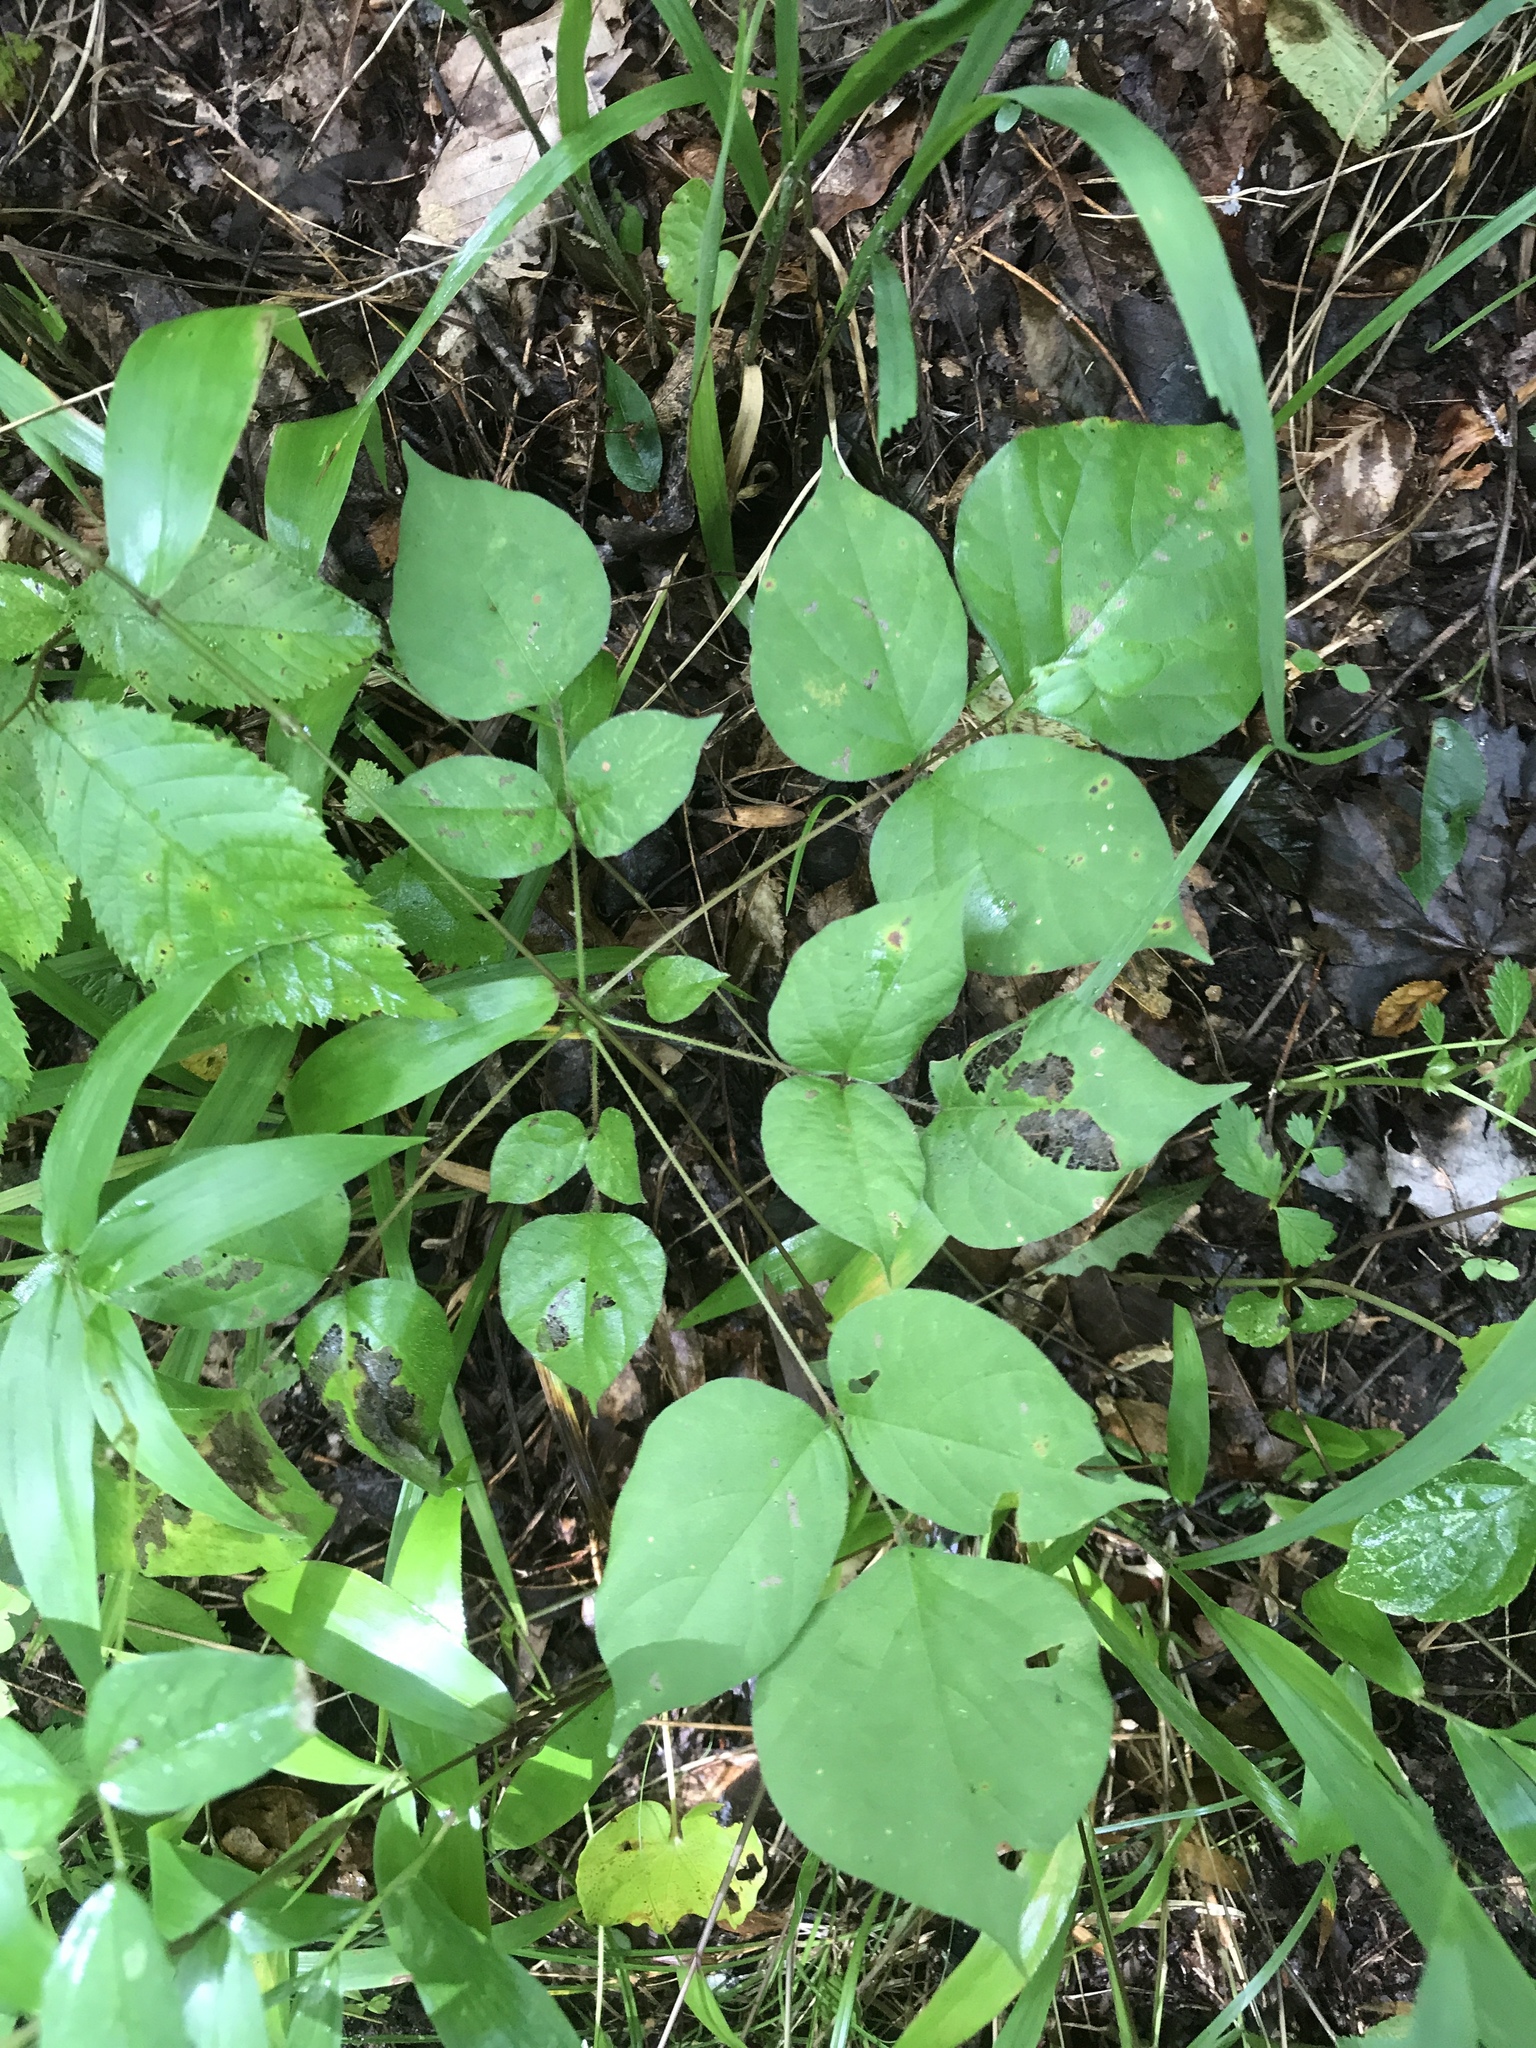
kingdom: Plantae
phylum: Tracheophyta
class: Magnoliopsida
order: Fabales
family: Fabaceae
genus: Hylodesmum
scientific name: Hylodesmum glutinosum
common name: Clustered-leaved tick-trefoil
